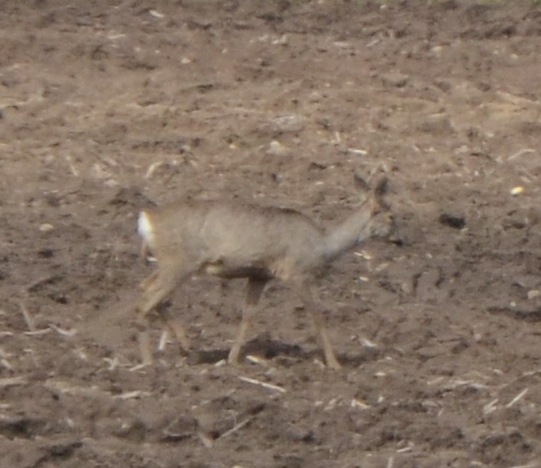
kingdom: Animalia
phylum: Chordata
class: Mammalia
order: Artiodactyla
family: Cervidae
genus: Capreolus
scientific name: Capreolus capreolus
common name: Western roe deer
